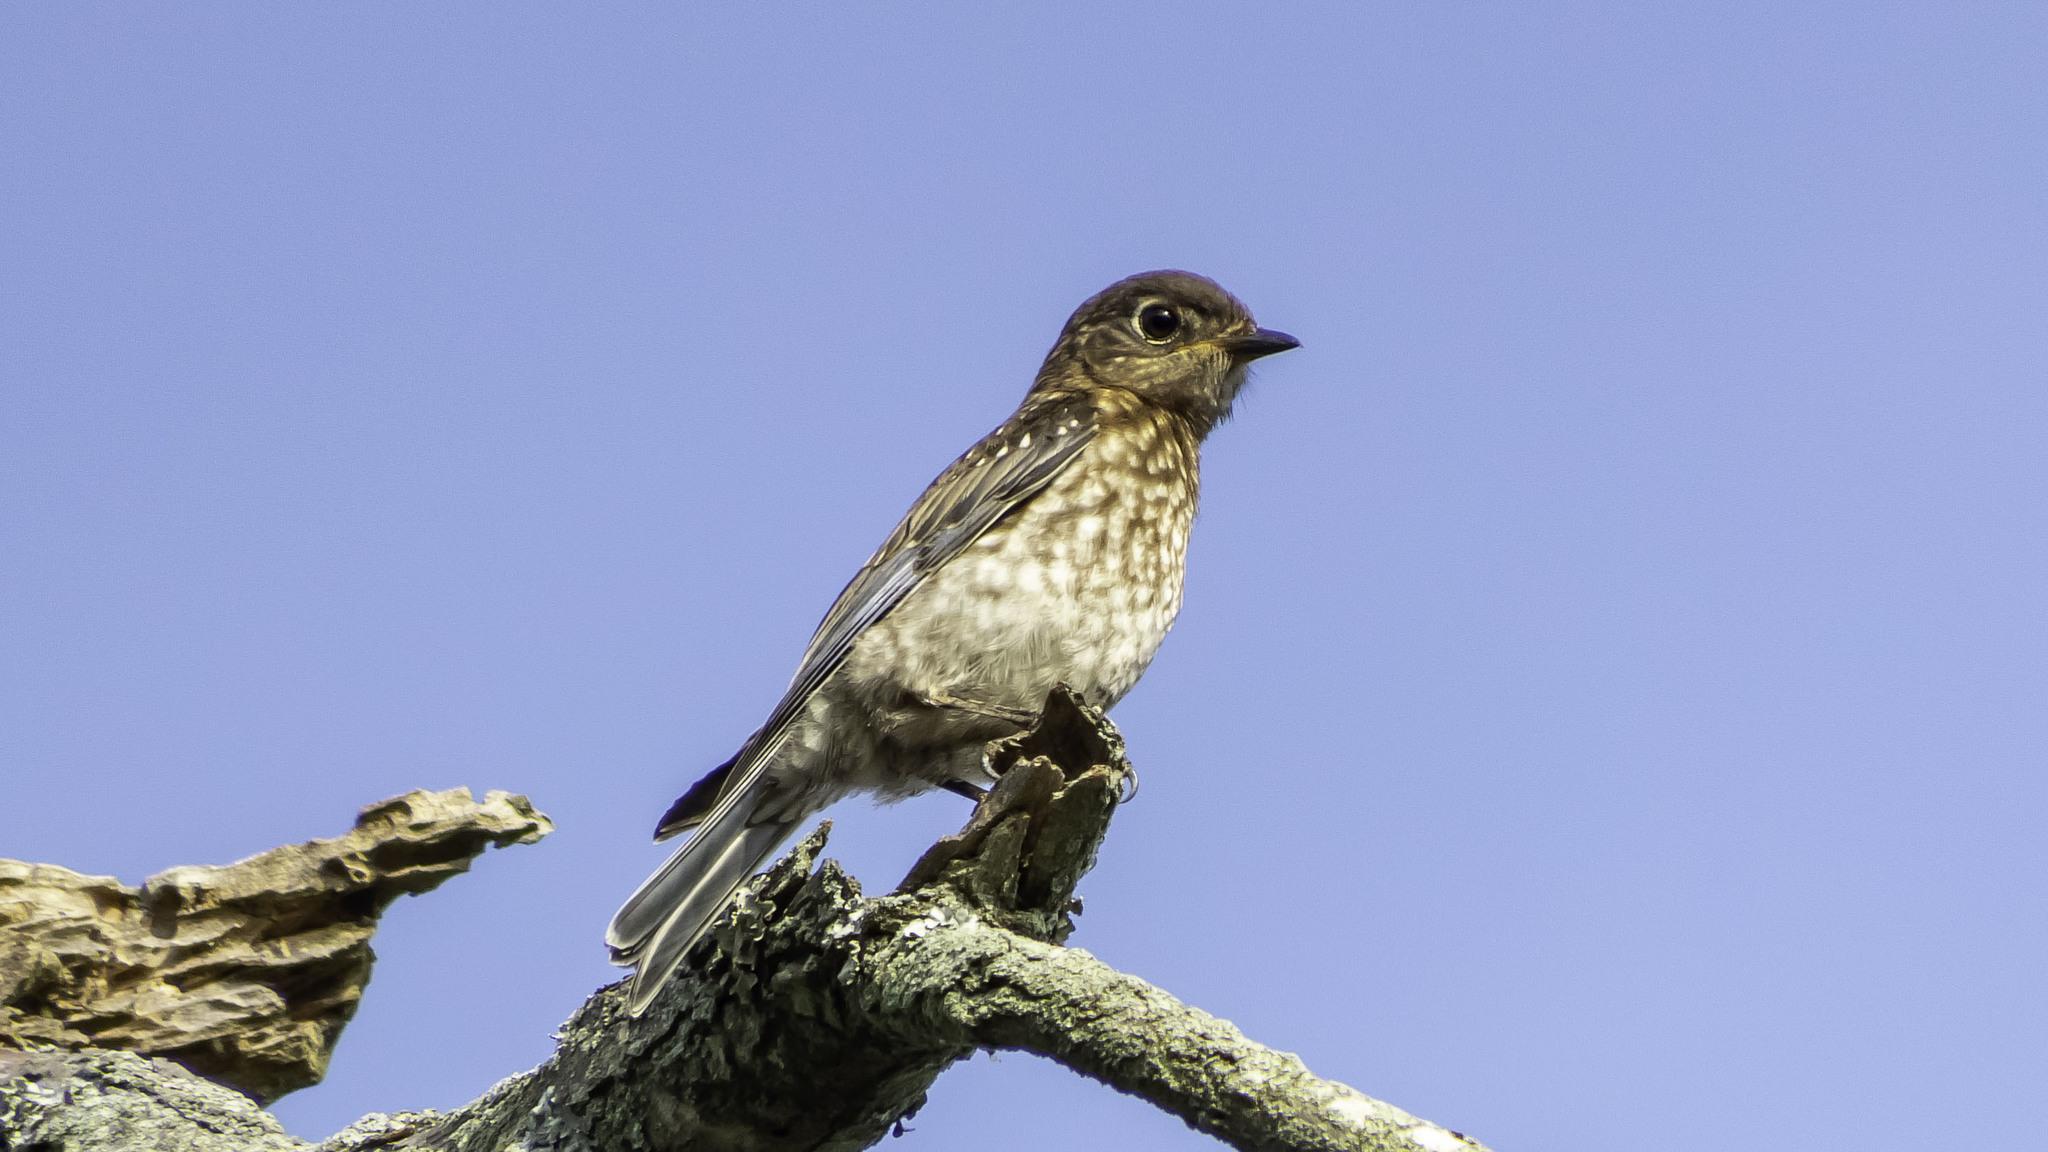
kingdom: Animalia
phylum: Chordata
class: Aves
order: Passeriformes
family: Turdidae
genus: Sialia
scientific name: Sialia sialis
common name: Eastern bluebird
